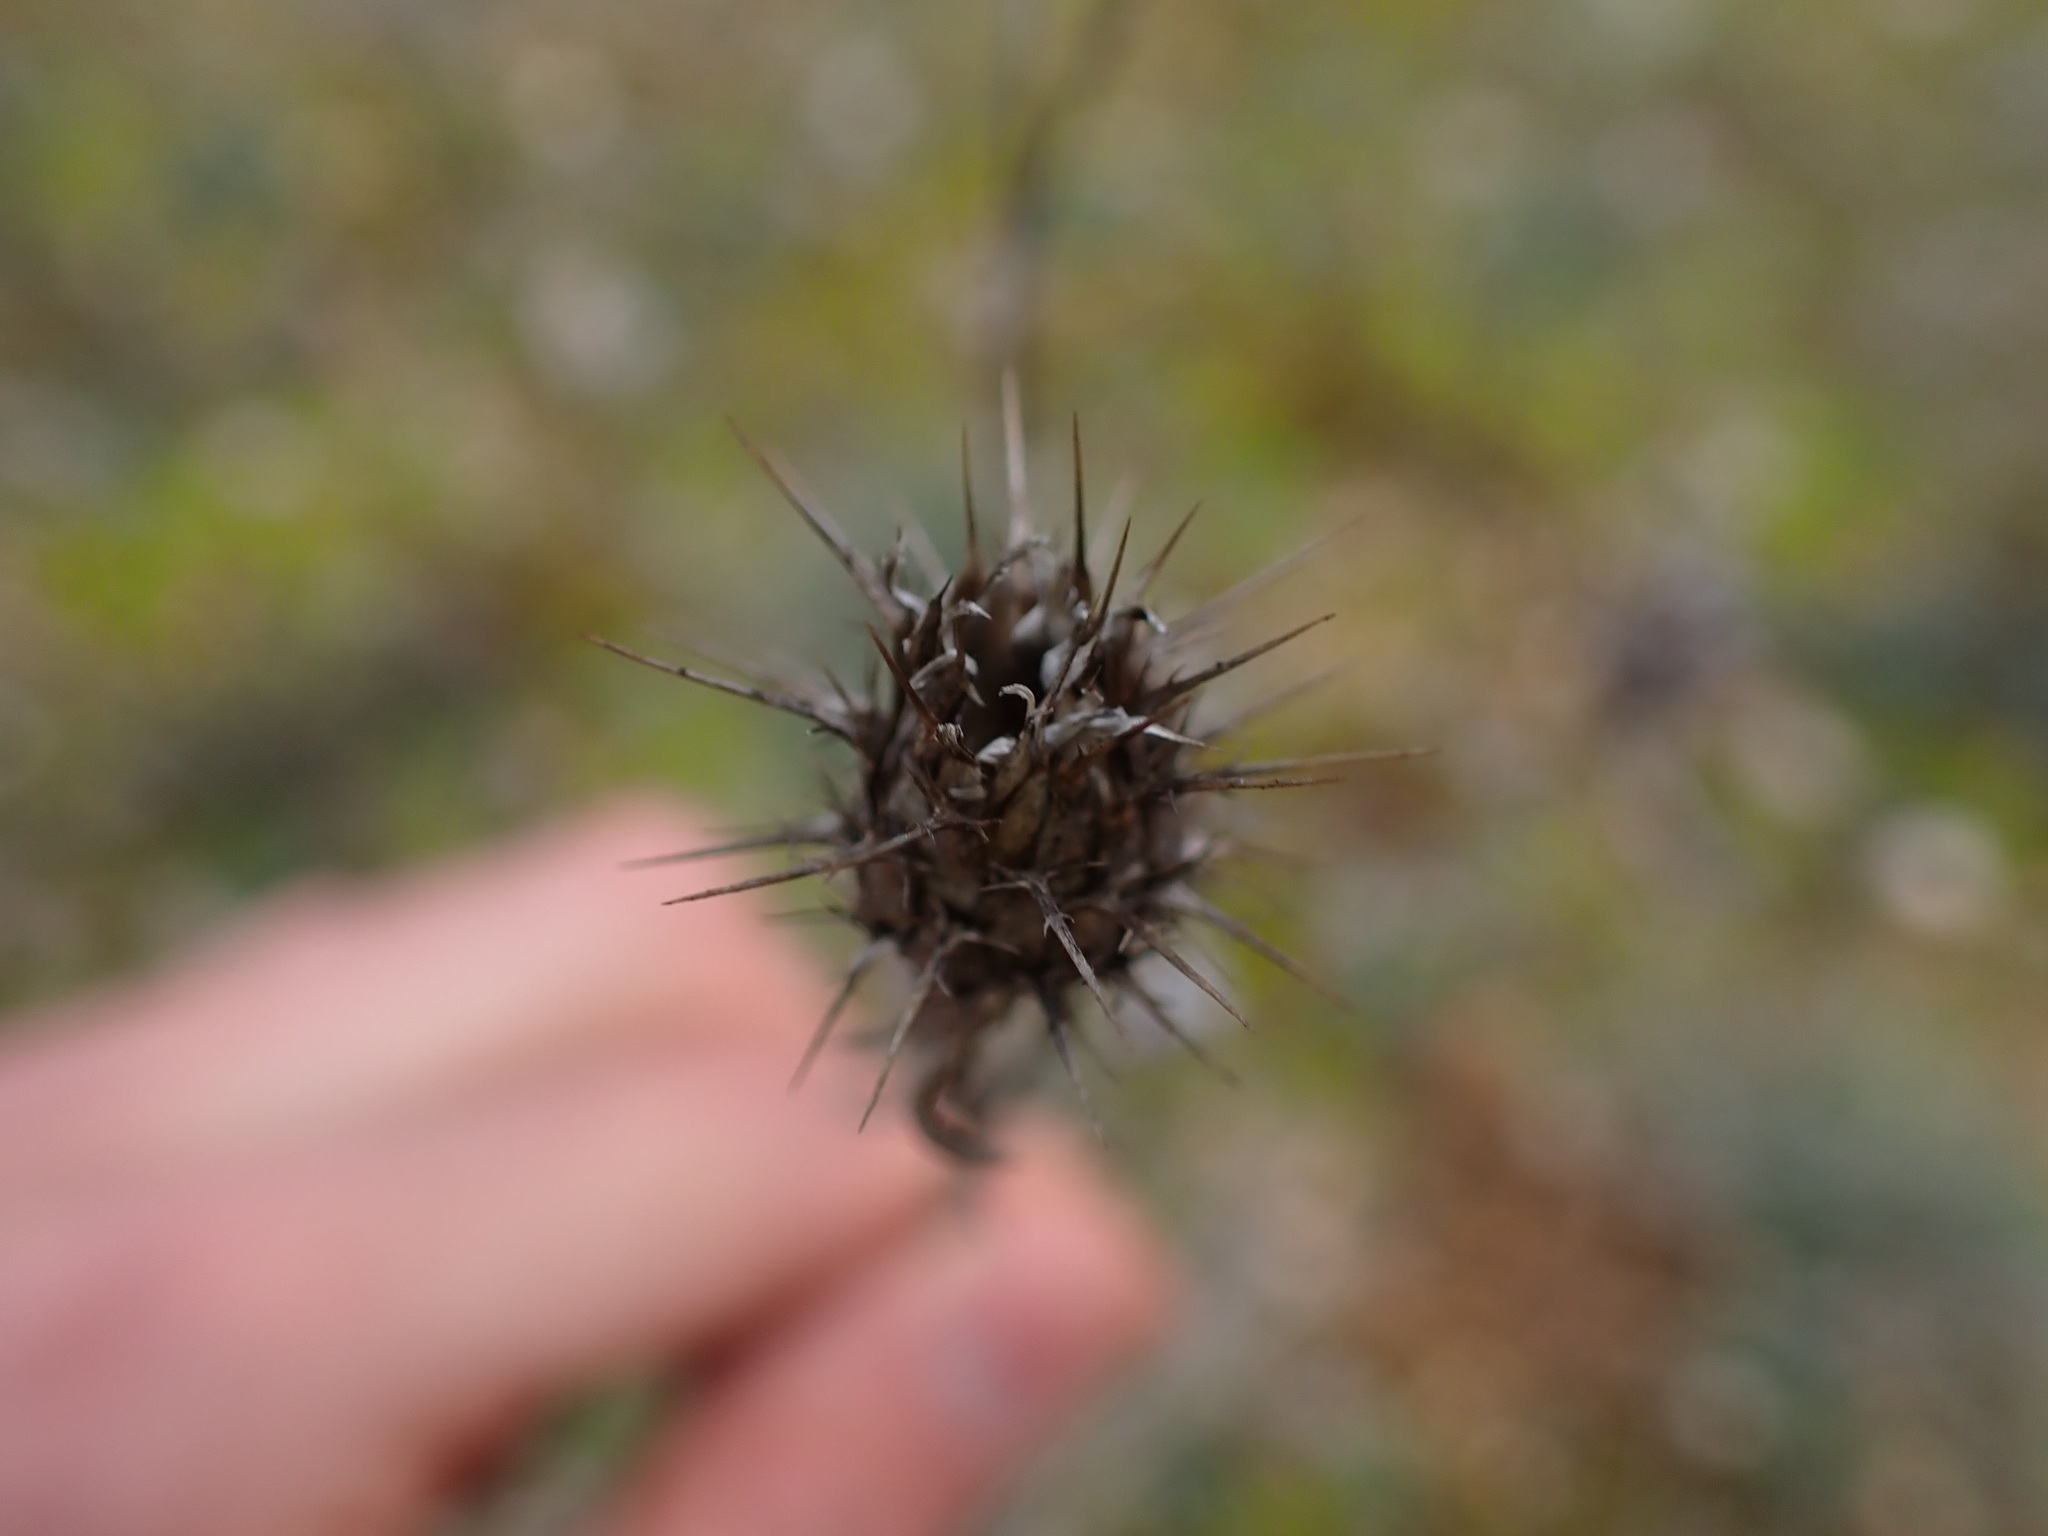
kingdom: Plantae
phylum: Tracheophyta
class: Magnoliopsida
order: Asterales
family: Asteraceae
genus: Centaurea
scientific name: Centaurea melitensis
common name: Maltese star-thistle
